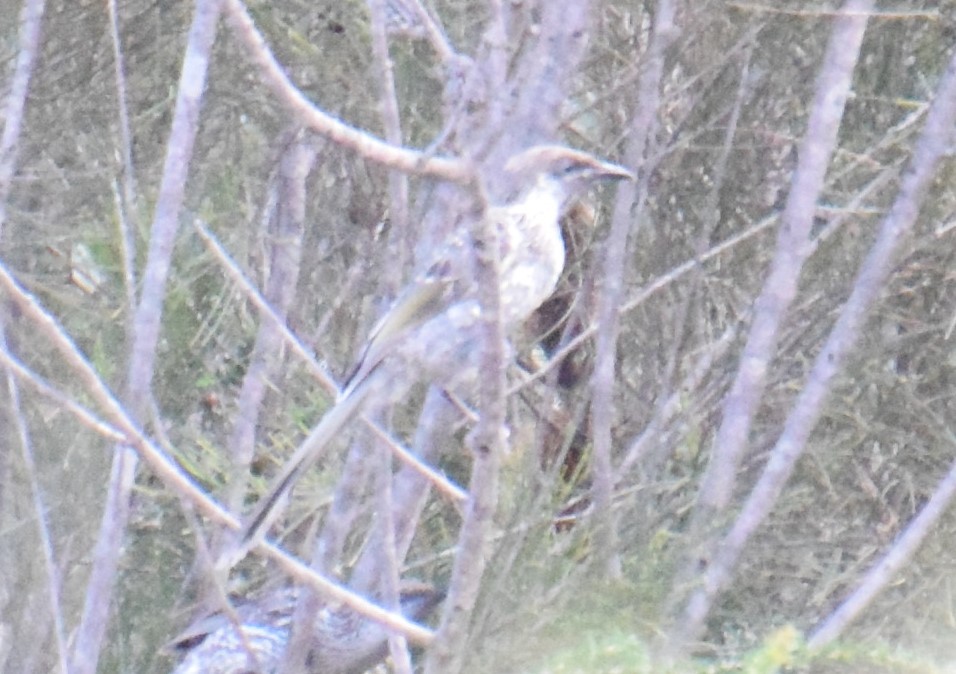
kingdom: Animalia
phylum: Chordata
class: Aves
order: Passeriformes
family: Meliphagidae
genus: Anthochaera
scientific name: Anthochaera chrysoptera
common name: Little wattlebird
